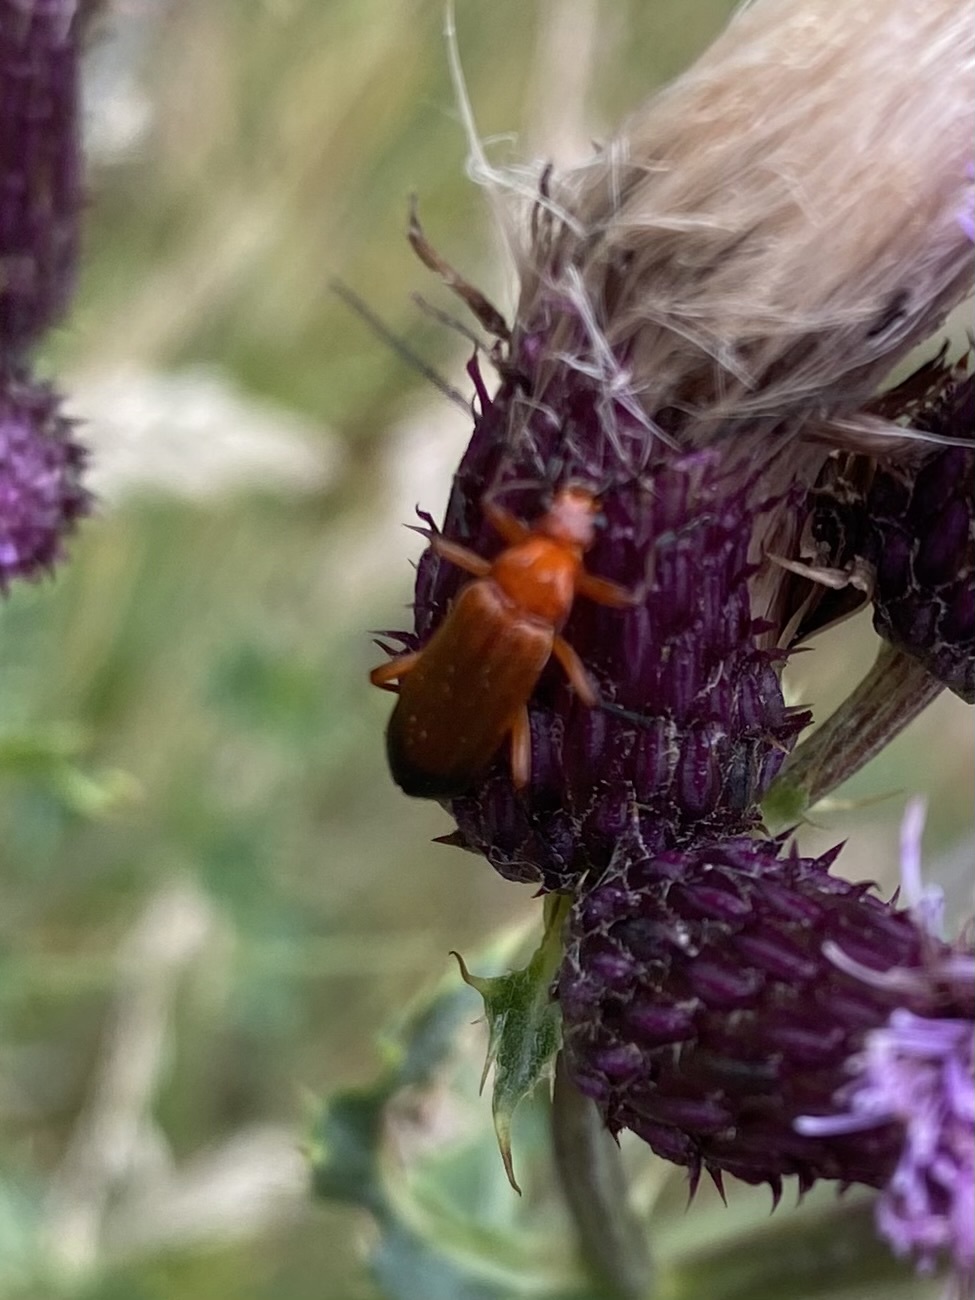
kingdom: Animalia
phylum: Arthropoda
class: Insecta
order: Coleoptera
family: Cantharidae
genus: Rhagonycha
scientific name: Rhagonycha fulva
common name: Common red soldier beetle
